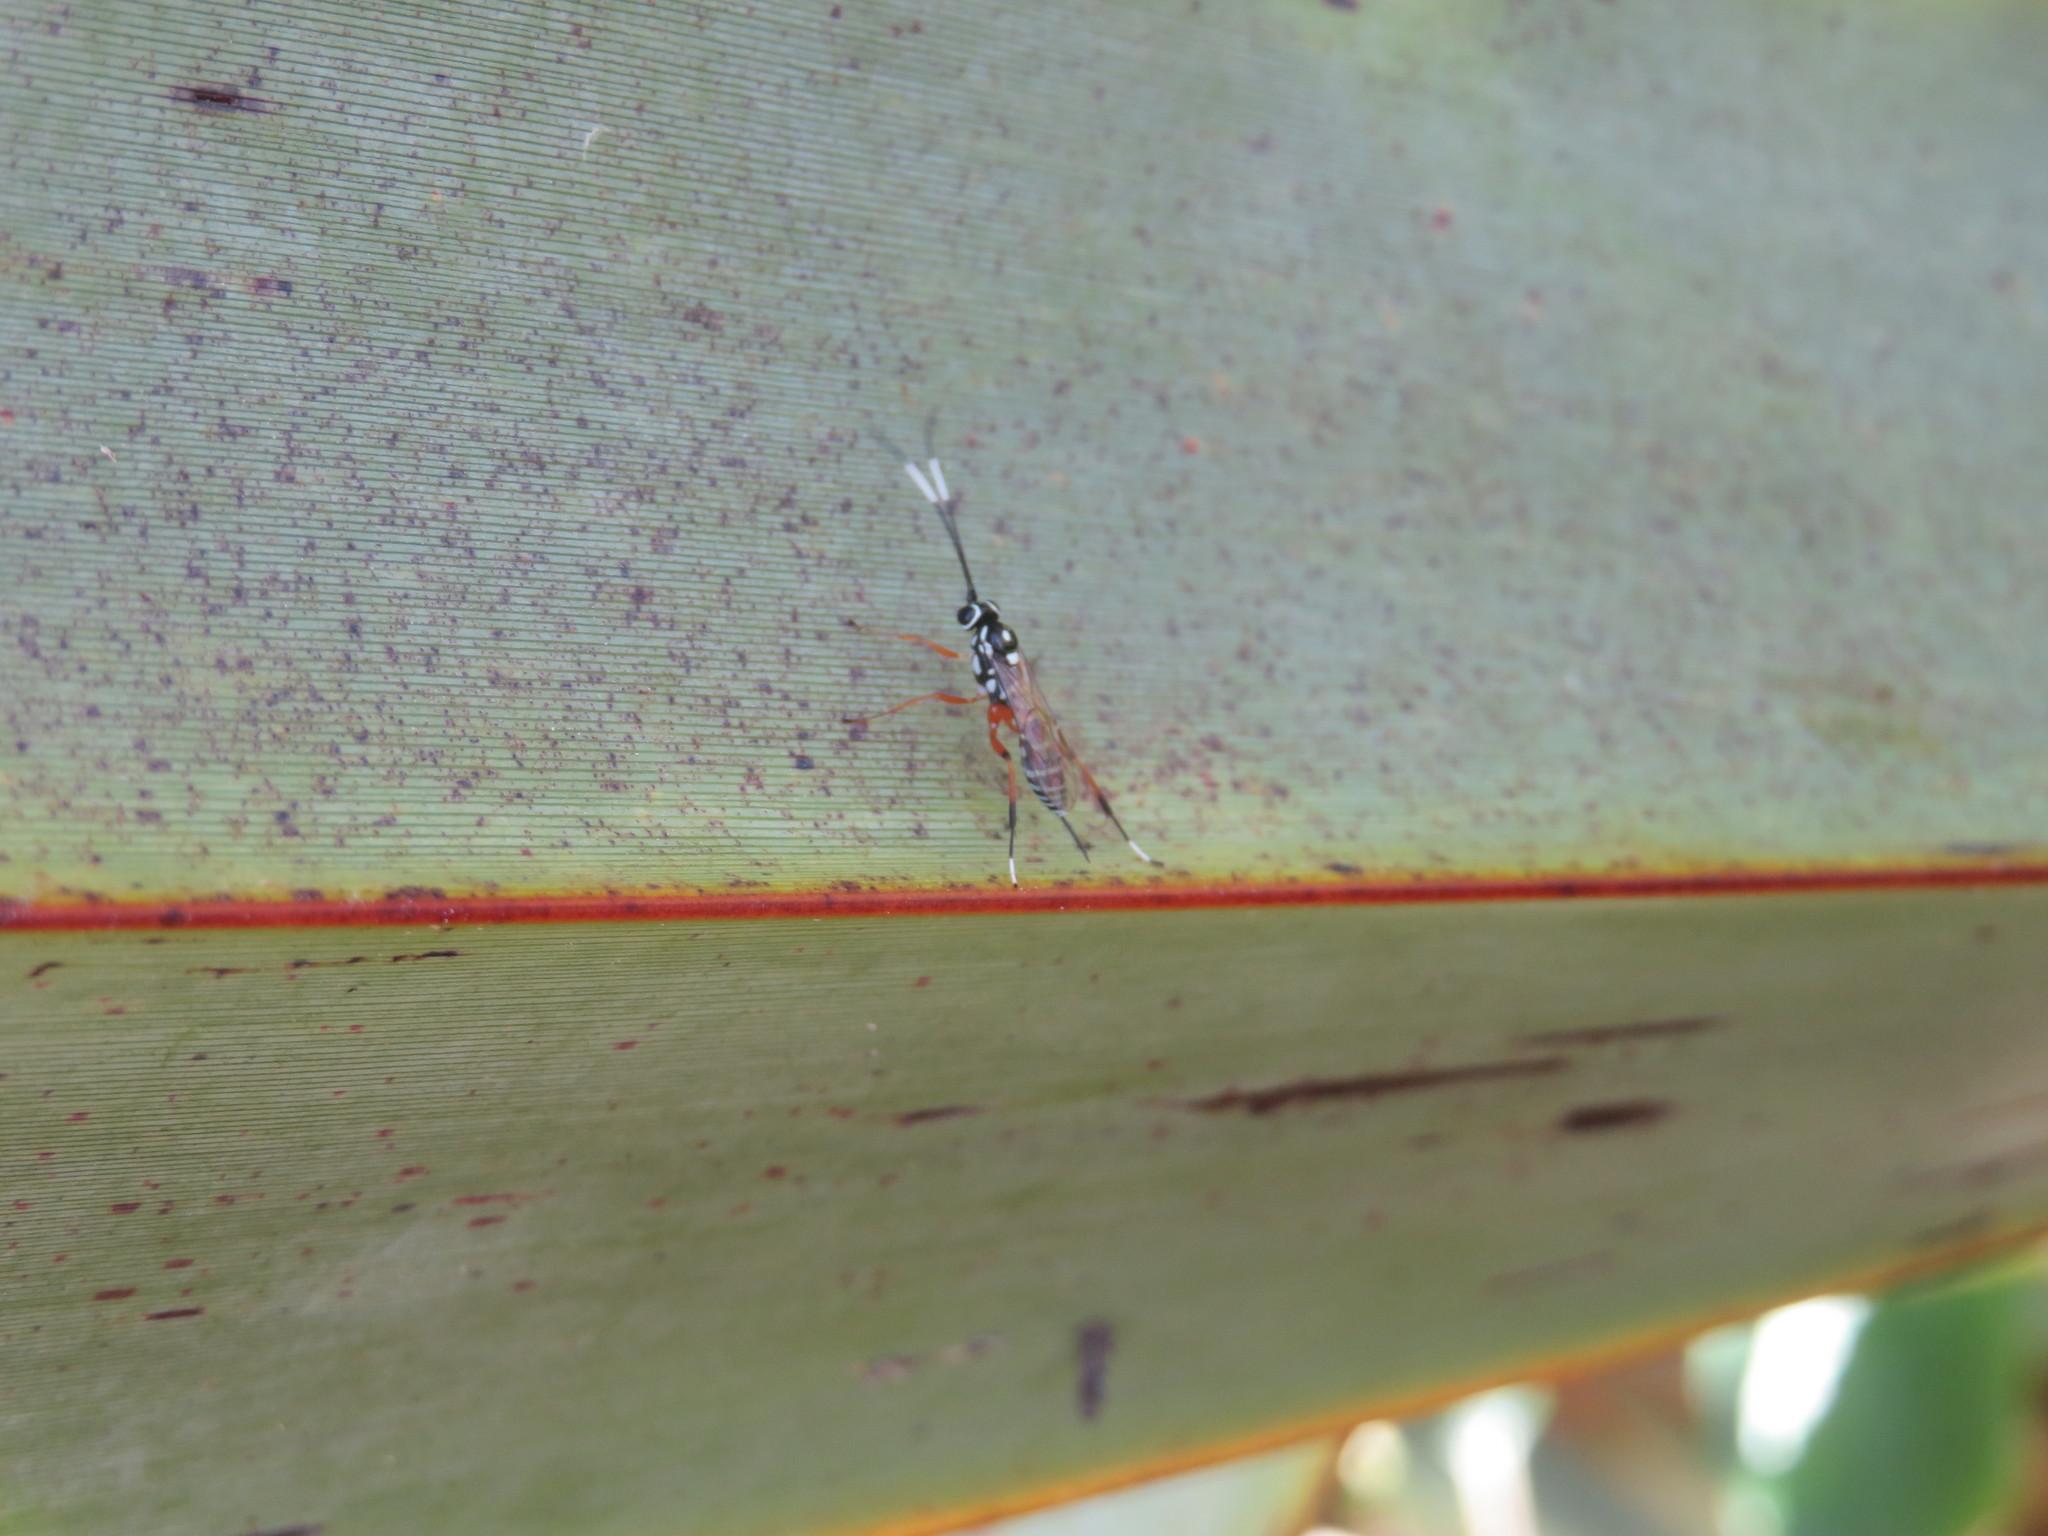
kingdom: Animalia
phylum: Arthropoda
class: Insecta
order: Hymenoptera
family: Ichneumonidae
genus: Glabridorsum
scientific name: Glabridorsum stokesii
